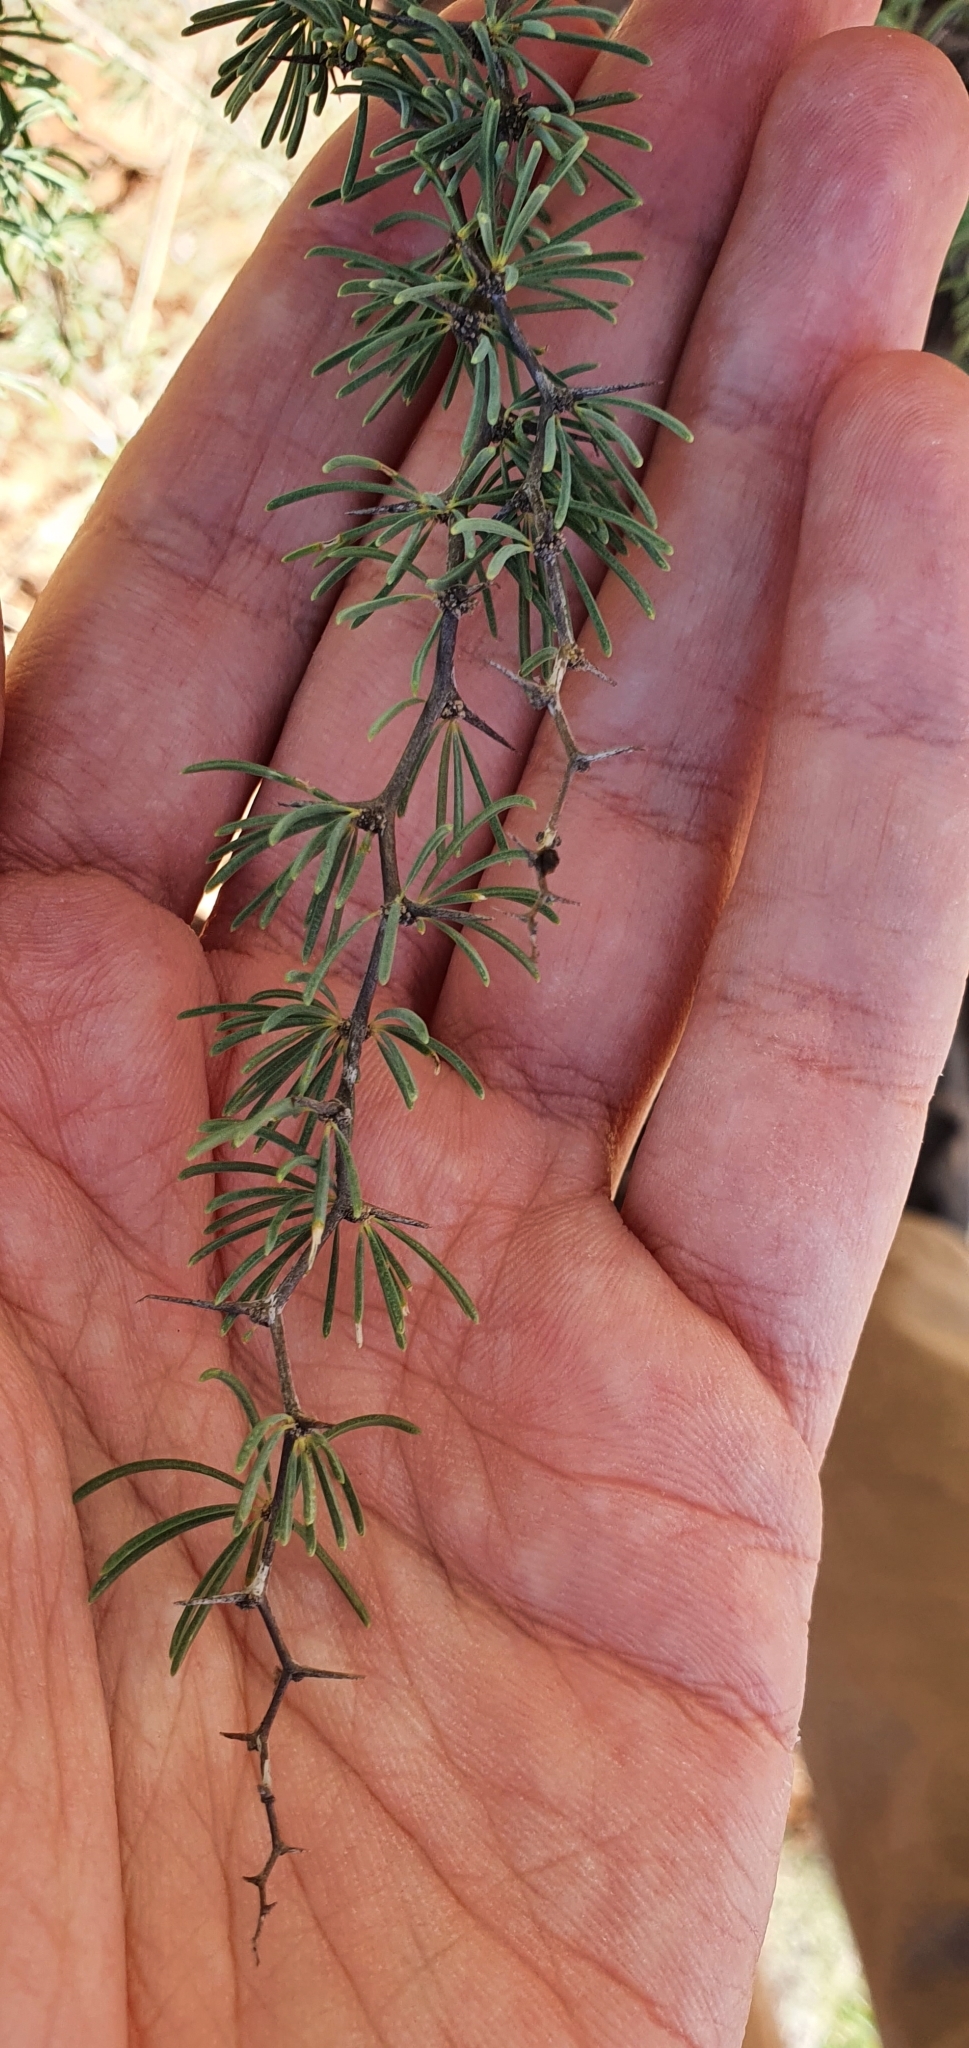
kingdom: Plantae
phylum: Tracheophyta
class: Liliopsida
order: Asparagales
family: Asparagaceae
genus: Asparagus
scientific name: Asparagus albus
